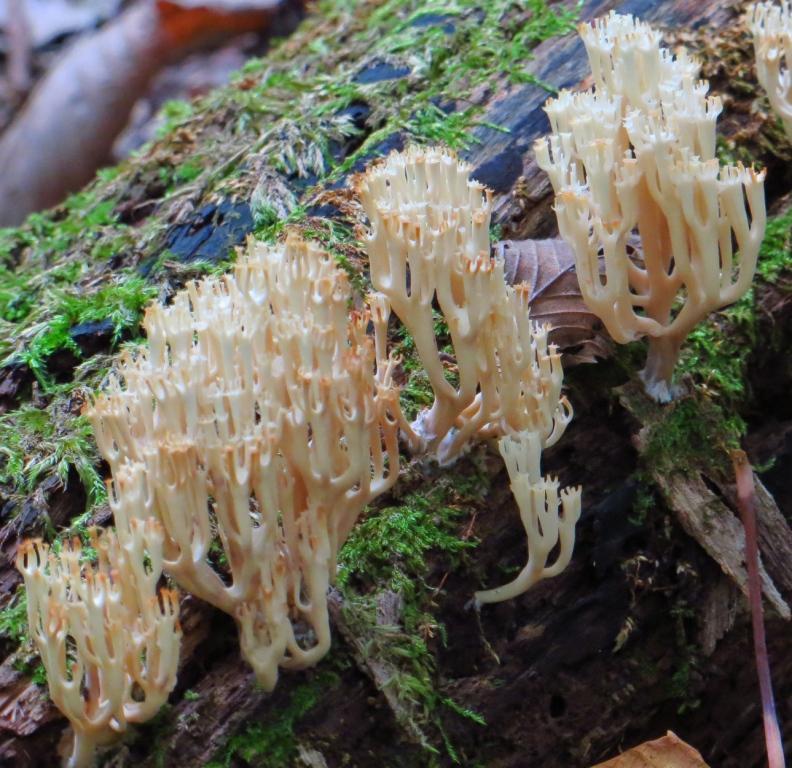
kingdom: Fungi
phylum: Basidiomycota
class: Agaricomycetes
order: Russulales
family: Auriscalpiaceae
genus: Artomyces
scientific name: Artomyces pyxidatus
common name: Crown-tipped coral fungus
